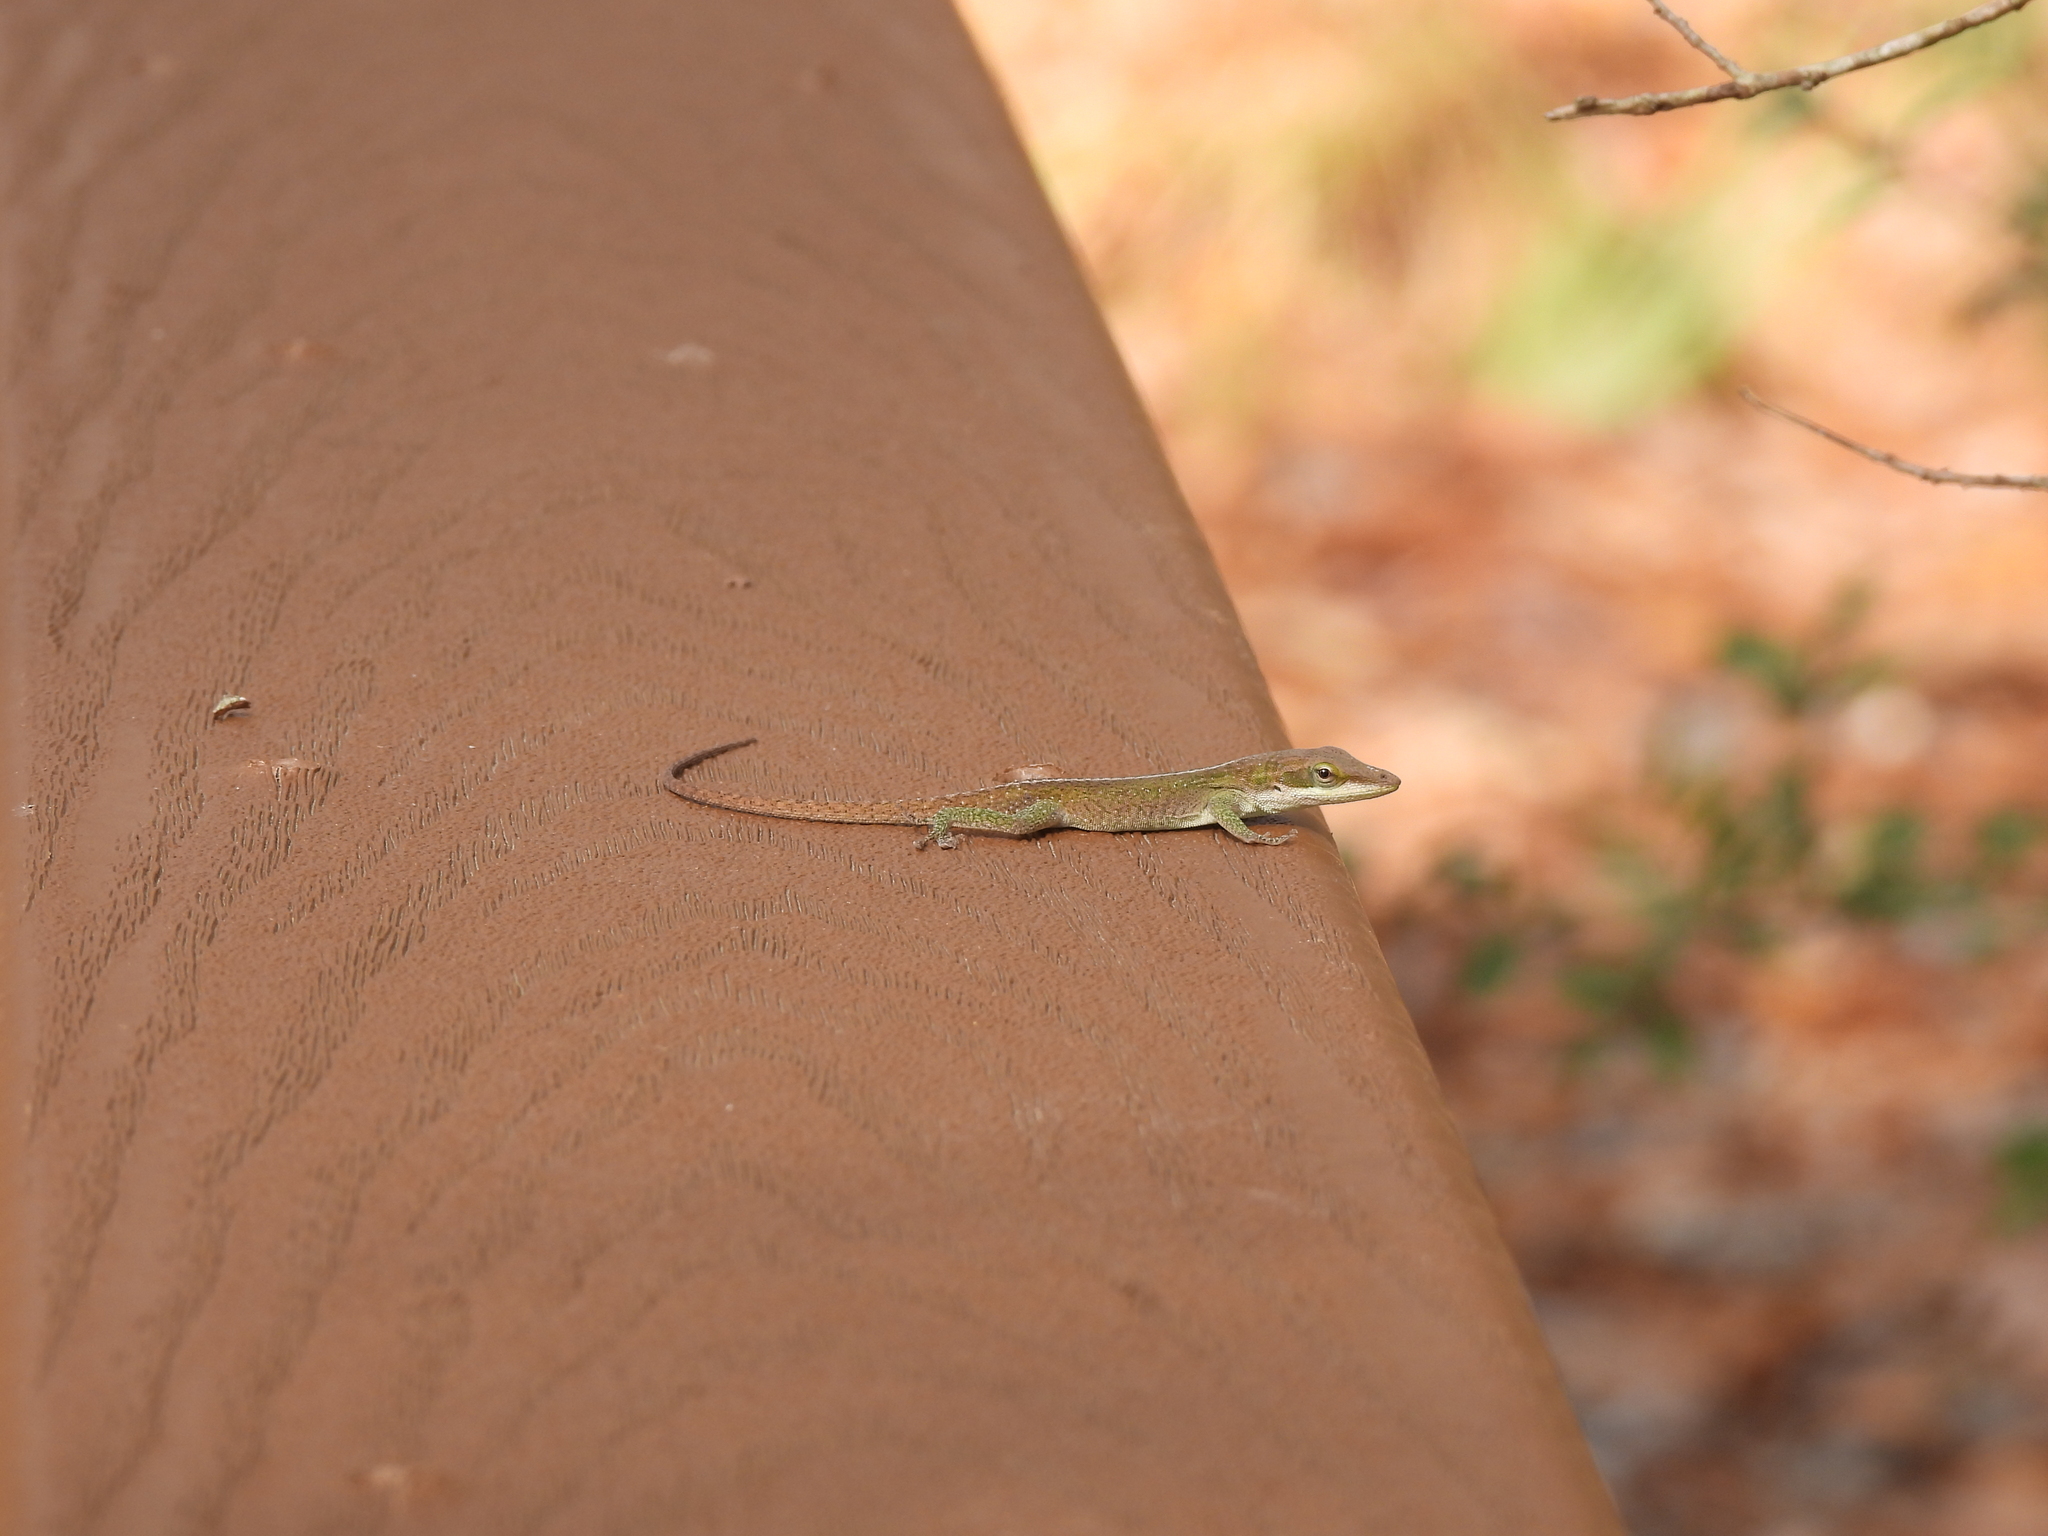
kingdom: Animalia
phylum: Chordata
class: Squamata
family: Dactyloidae
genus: Anolis
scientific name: Anolis carolinensis
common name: Green anole
